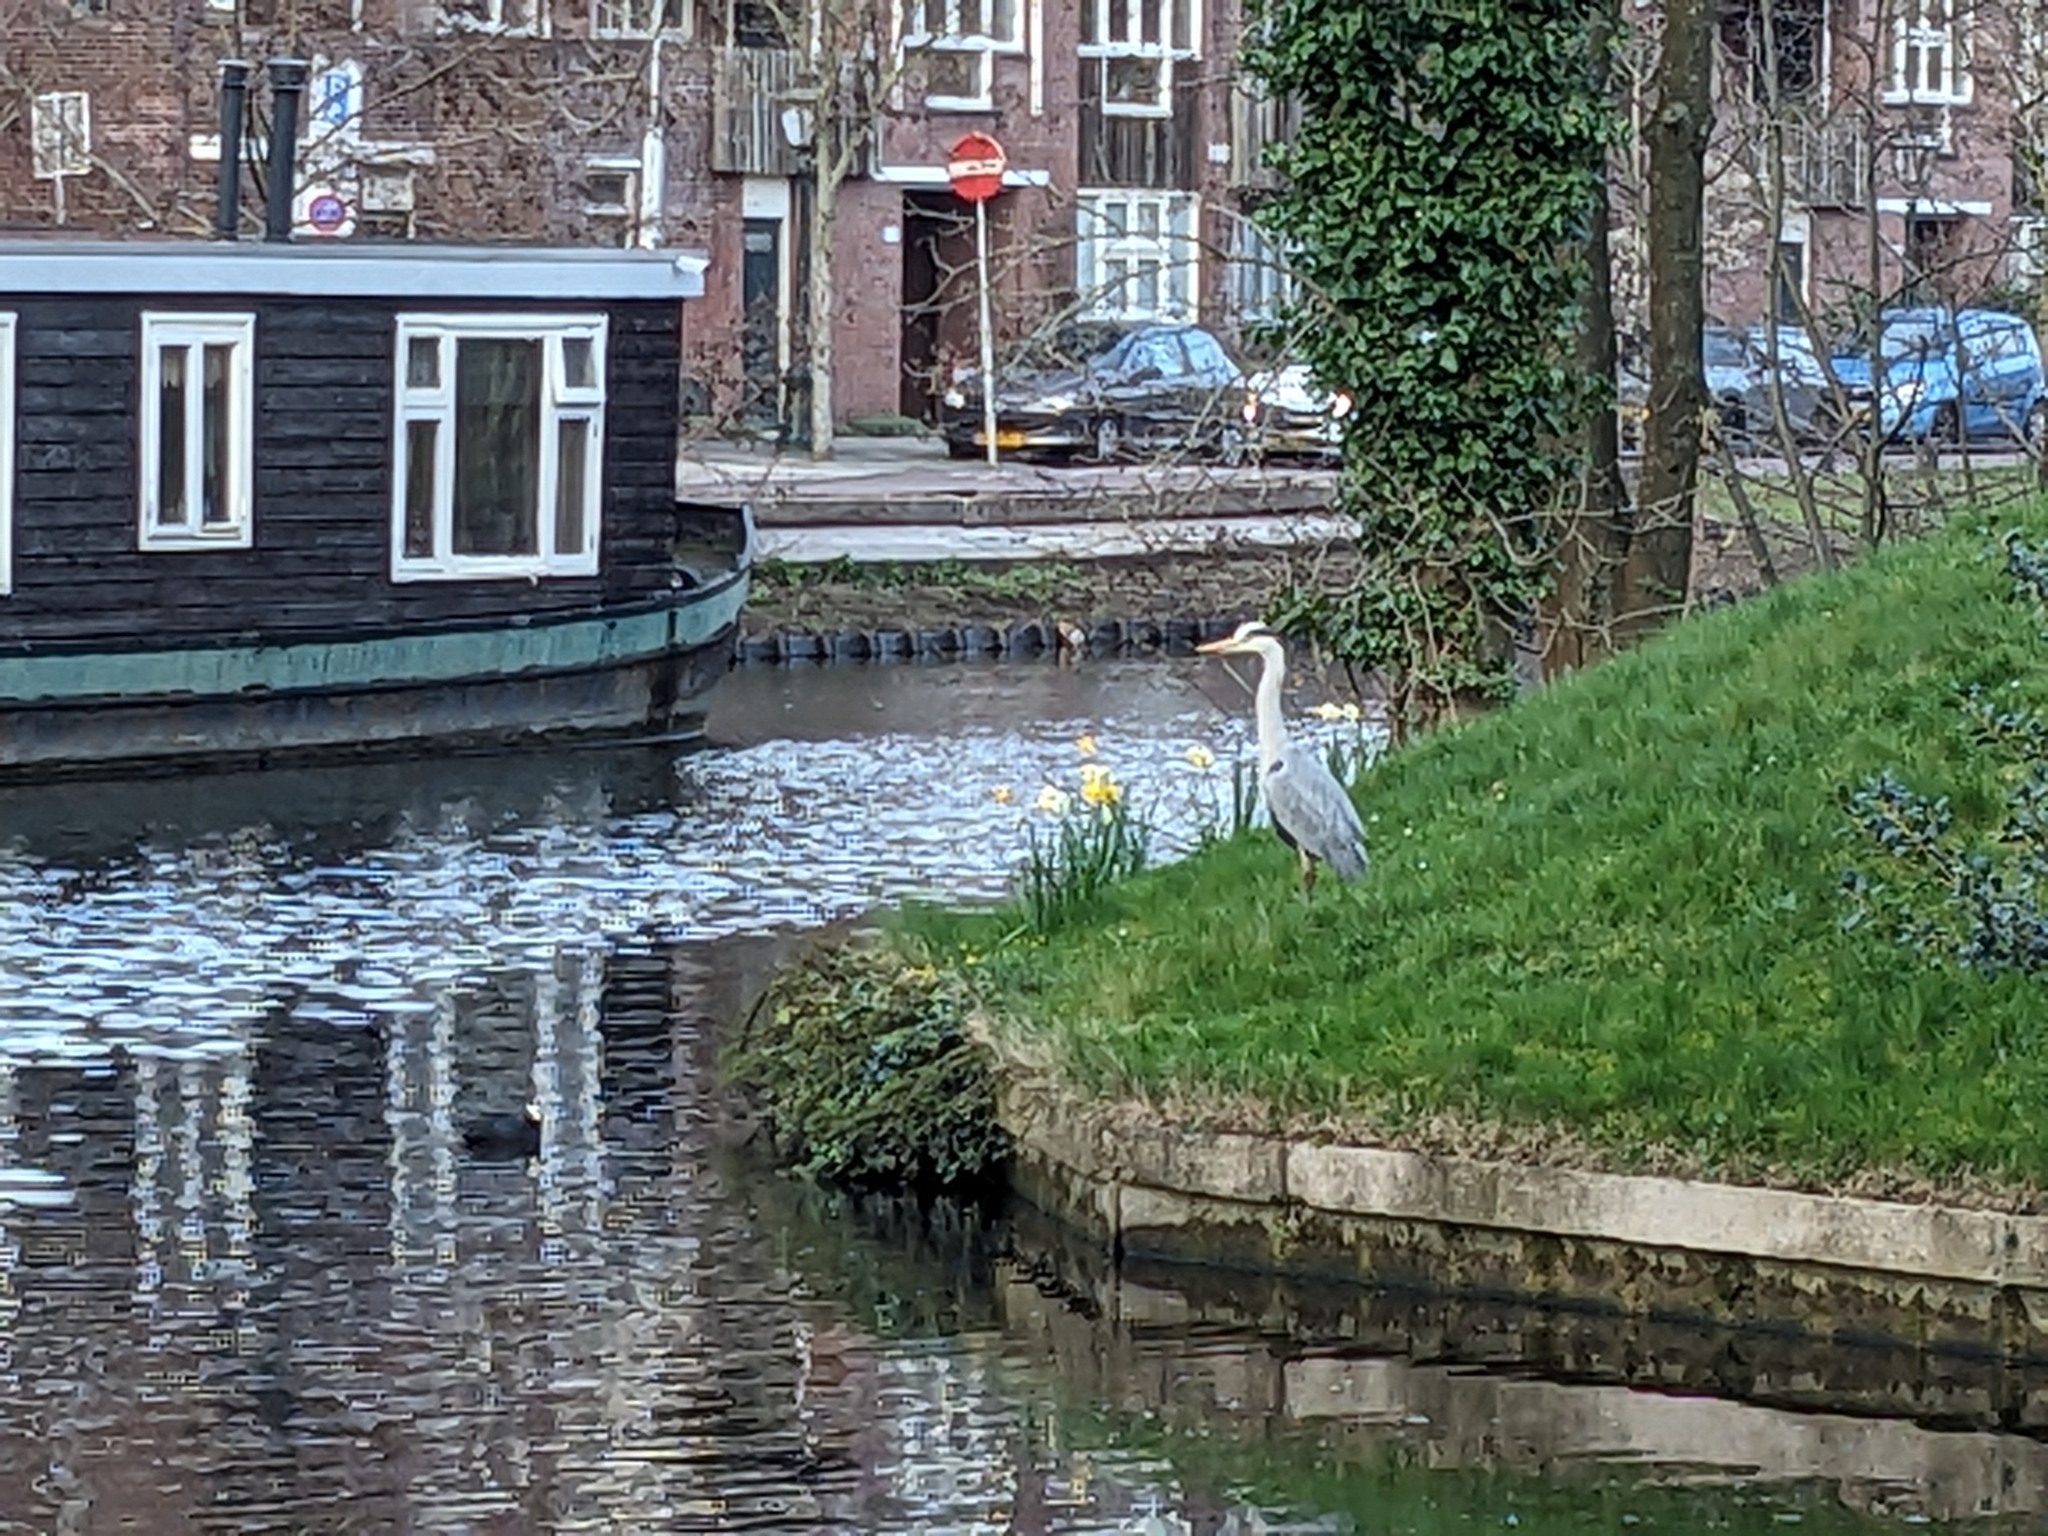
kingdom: Animalia
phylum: Chordata
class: Aves
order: Pelecaniformes
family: Ardeidae
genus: Ardea
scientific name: Ardea cinerea
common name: Grey heron
